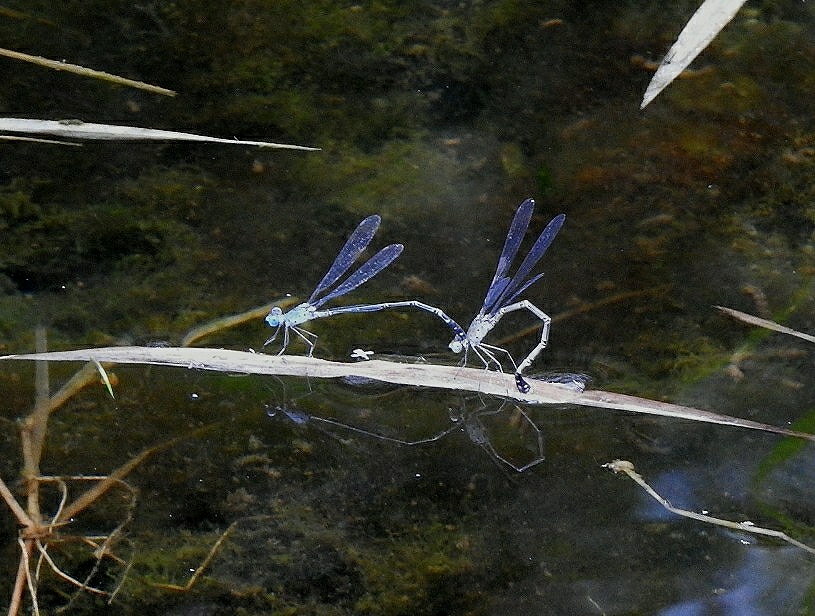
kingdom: Animalia
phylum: Arthropoda
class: Insecta
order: Odonata
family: Lestidae
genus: Lestes
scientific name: Lestes praemorsus
